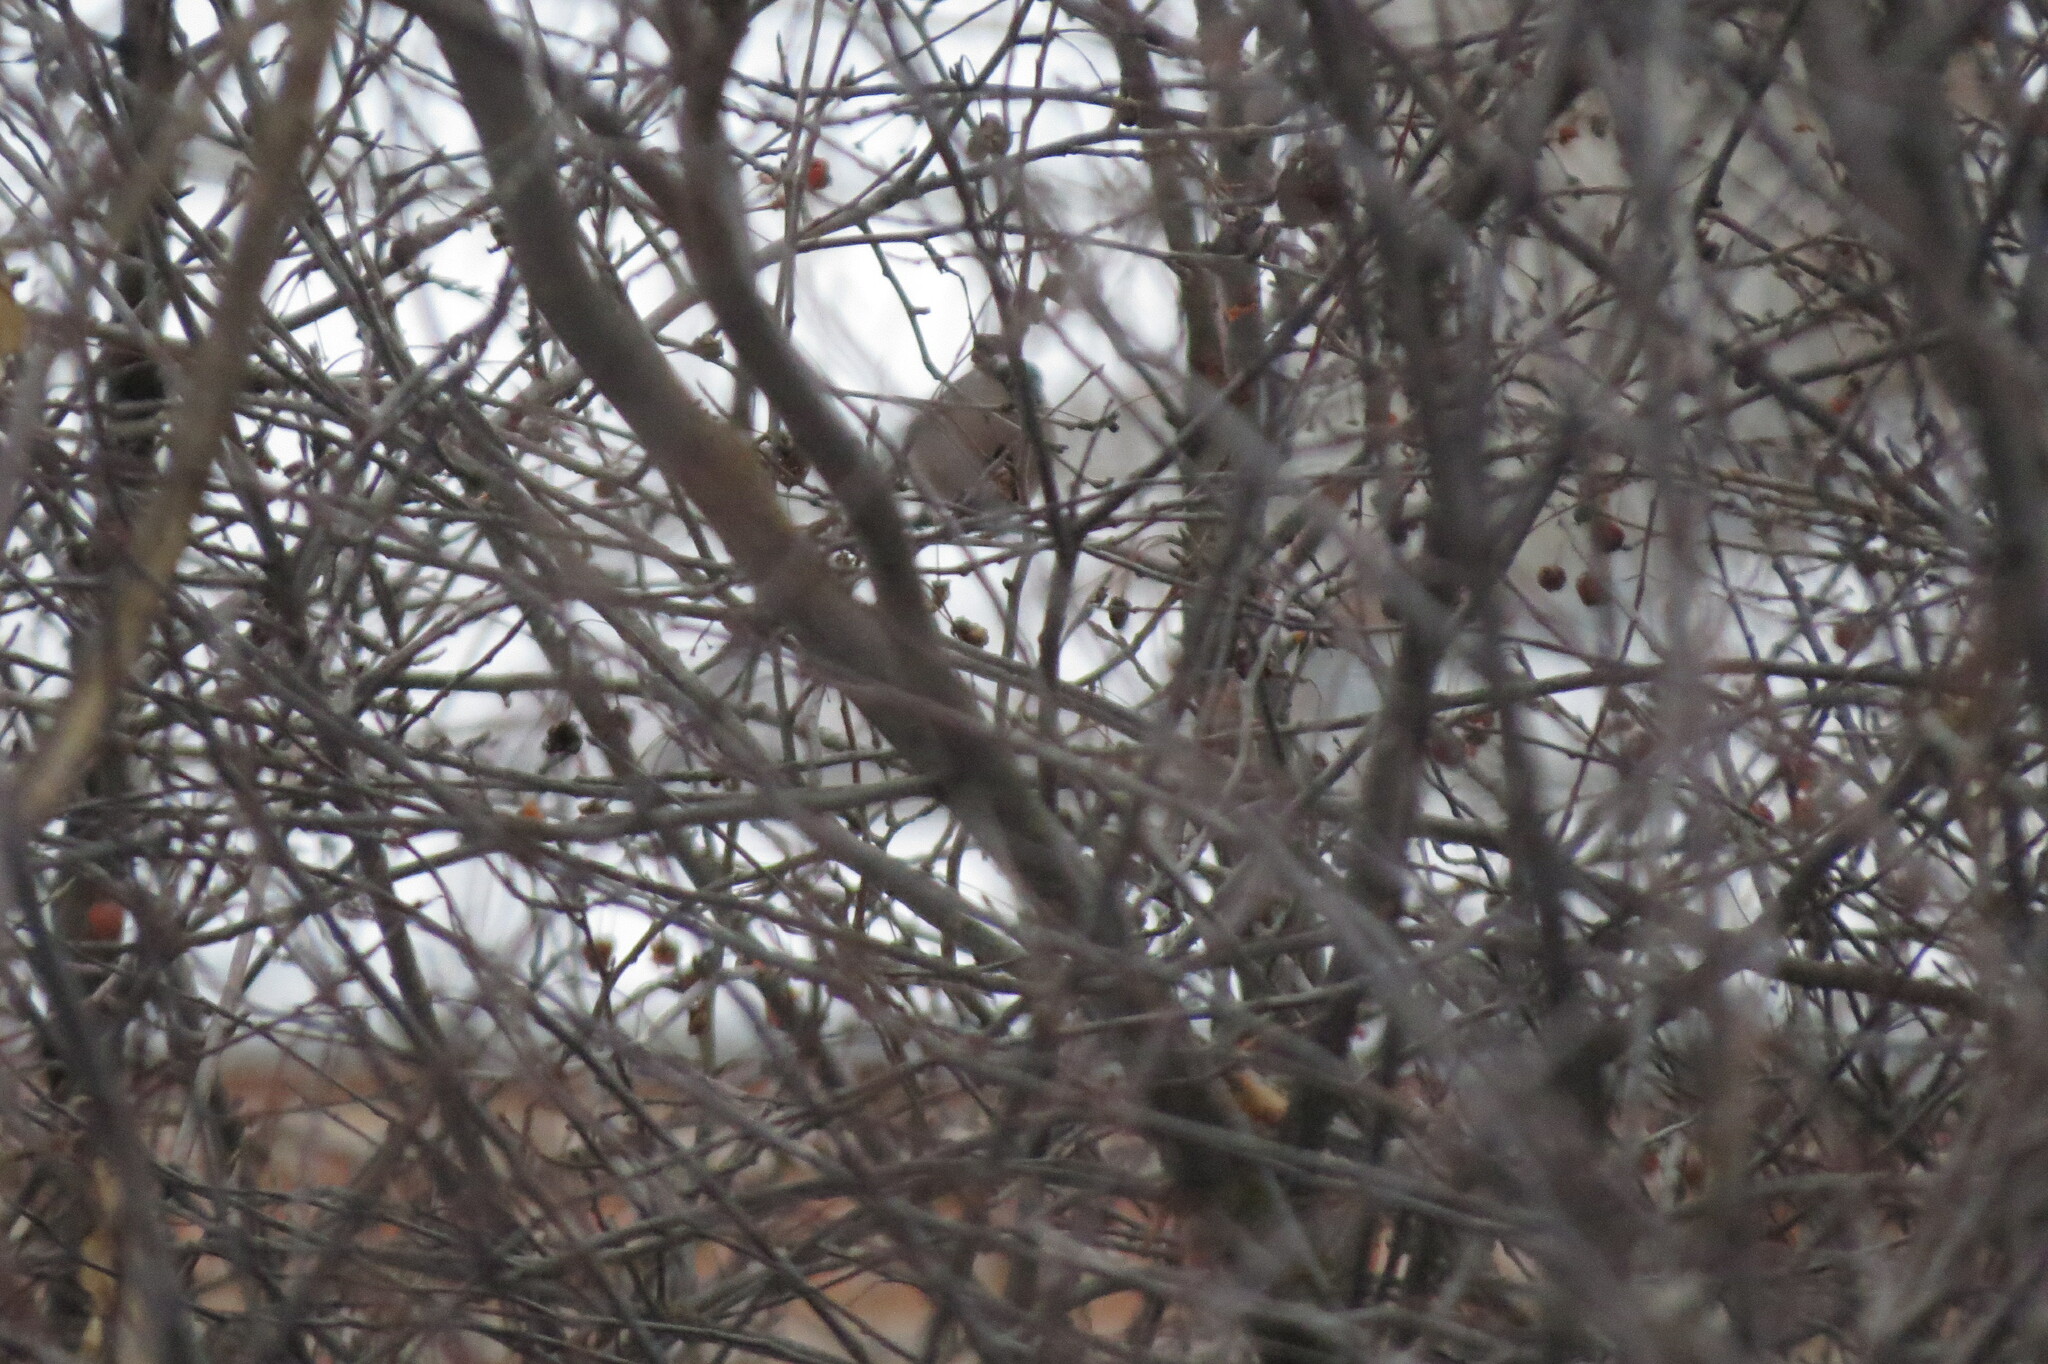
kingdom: Animalia
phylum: Chordata
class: Aves
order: Passeriformes
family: Fringillidae
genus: Pyrrhula
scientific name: Pyrrhula pyrrhula
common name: Eurasian bullfinch
